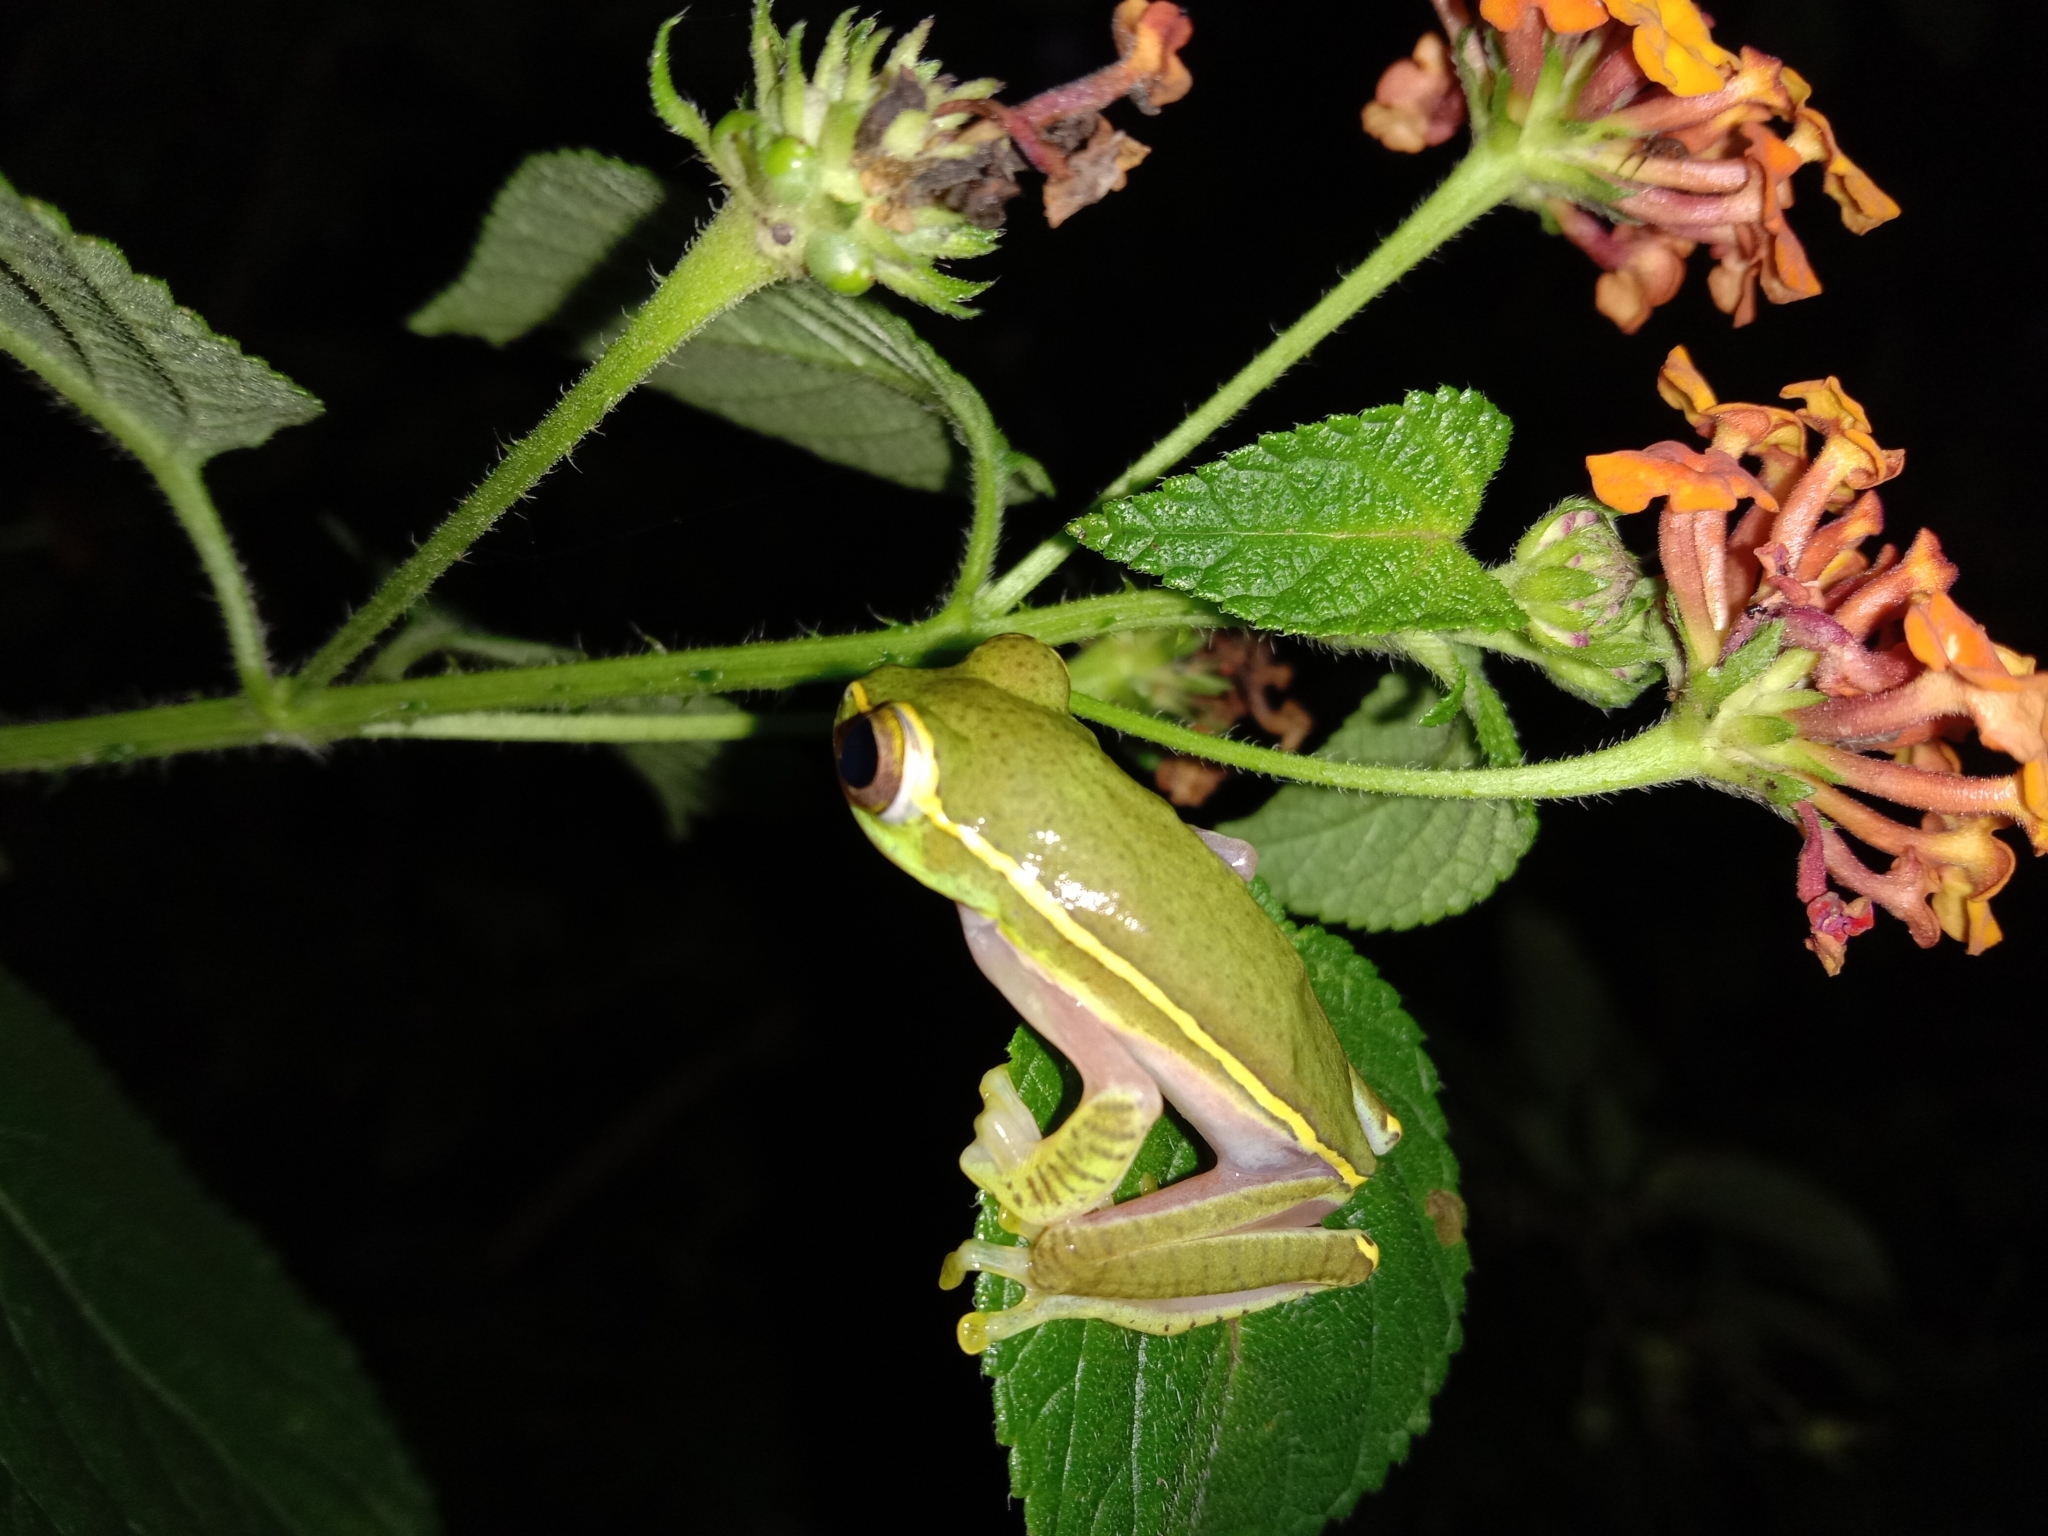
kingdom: Animalia
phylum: Chordata
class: Amphibia
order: Anura
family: Rhacophoridae
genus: Rhacophorus
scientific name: Rhacophorus lateralis
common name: Boulenger's tree frog
